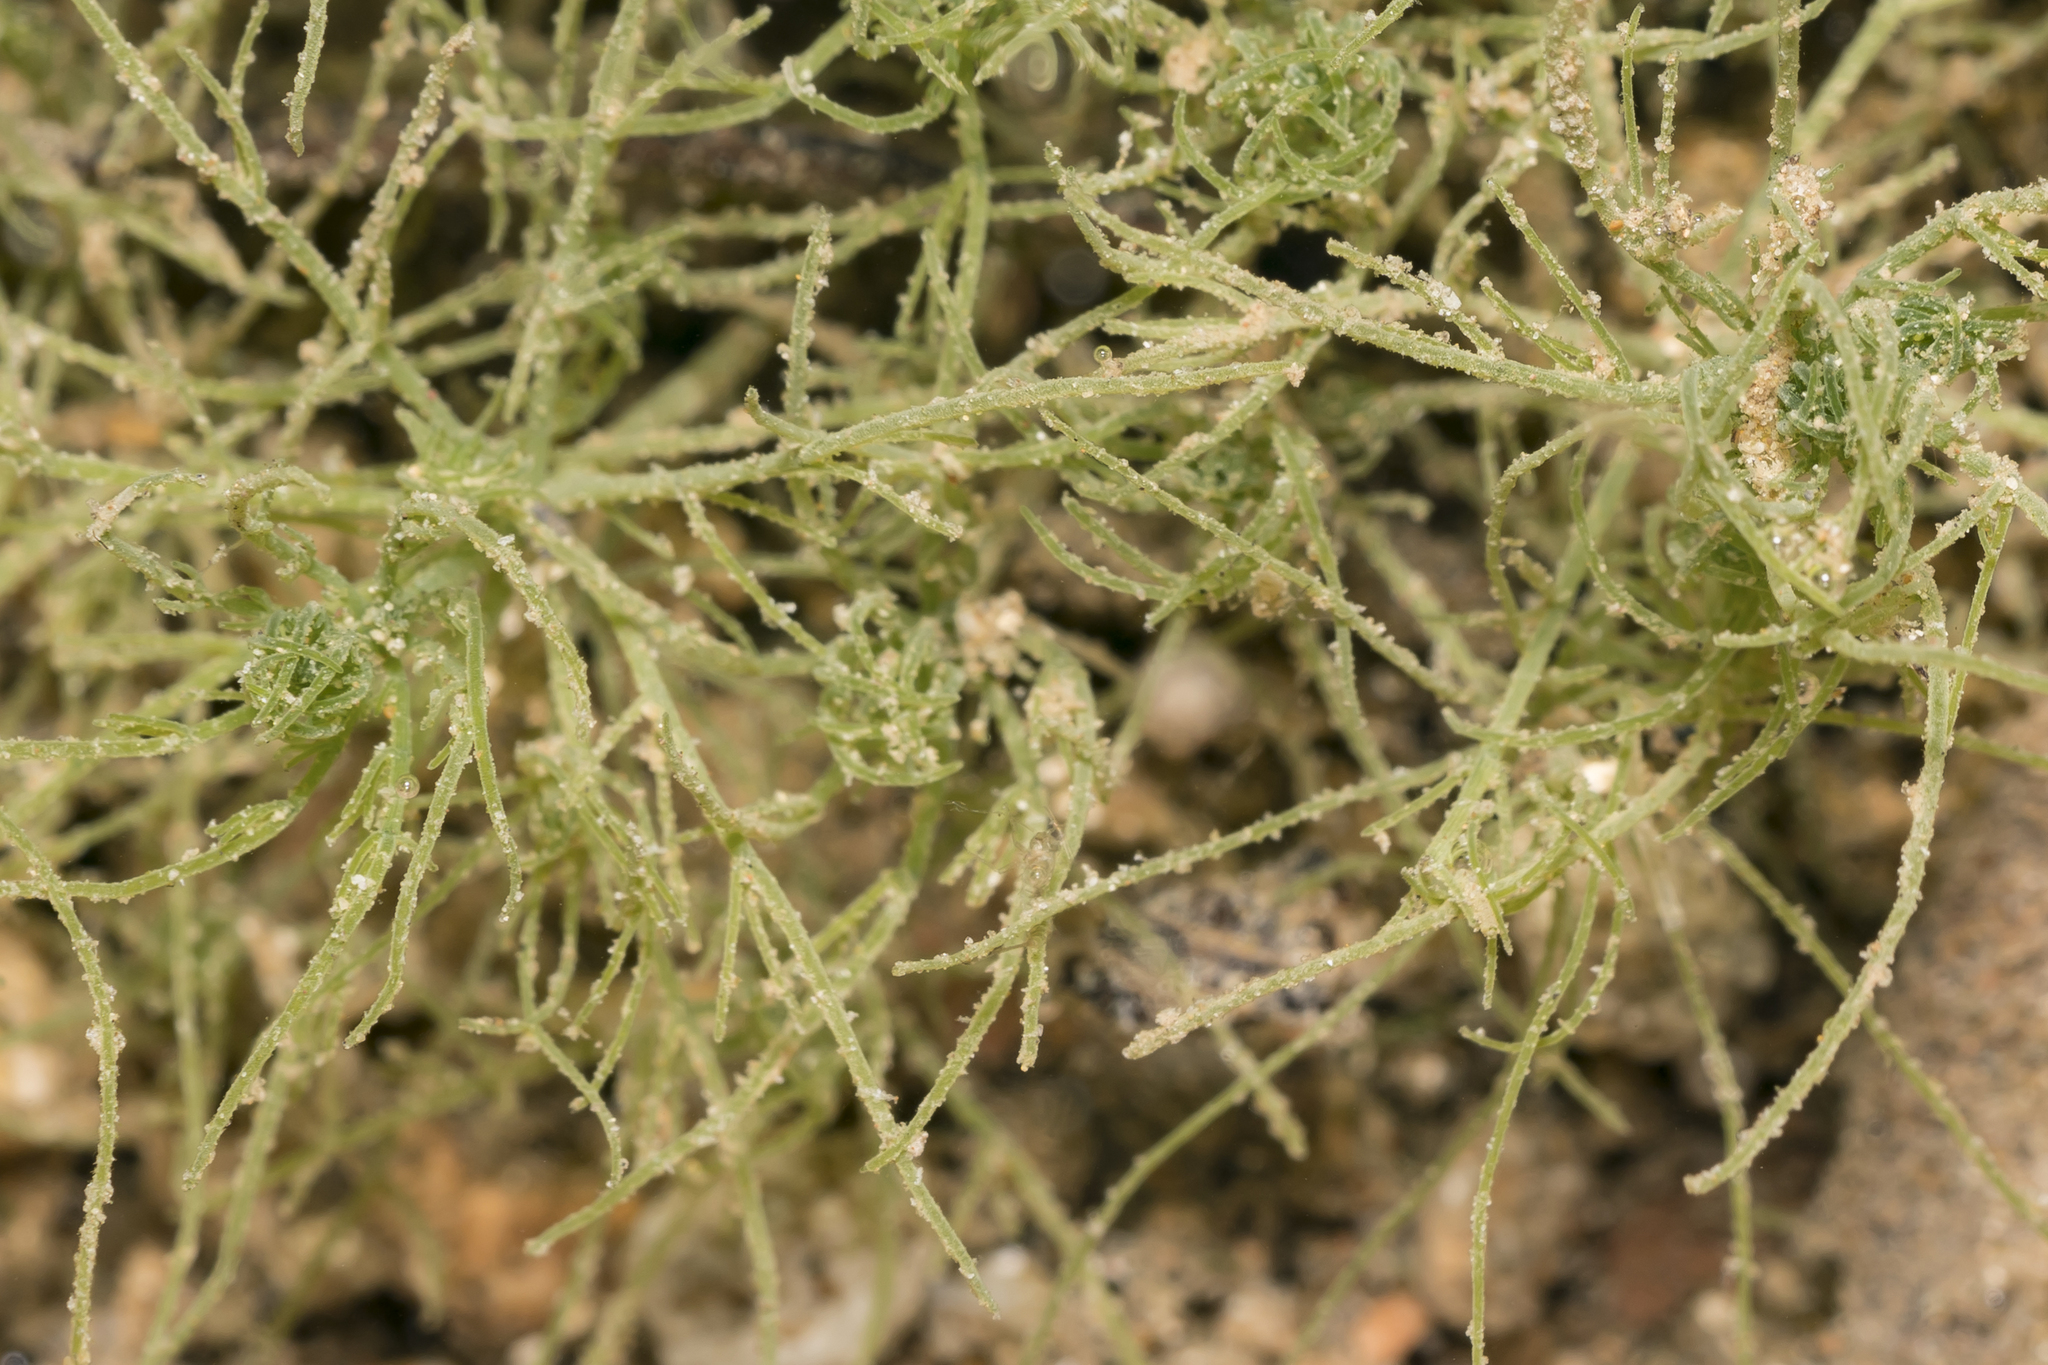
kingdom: Plantae
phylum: Charophyta
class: Charophyceae
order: Charales
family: Characeae
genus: Chara
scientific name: Chara vulgaris
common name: Common stonewort
